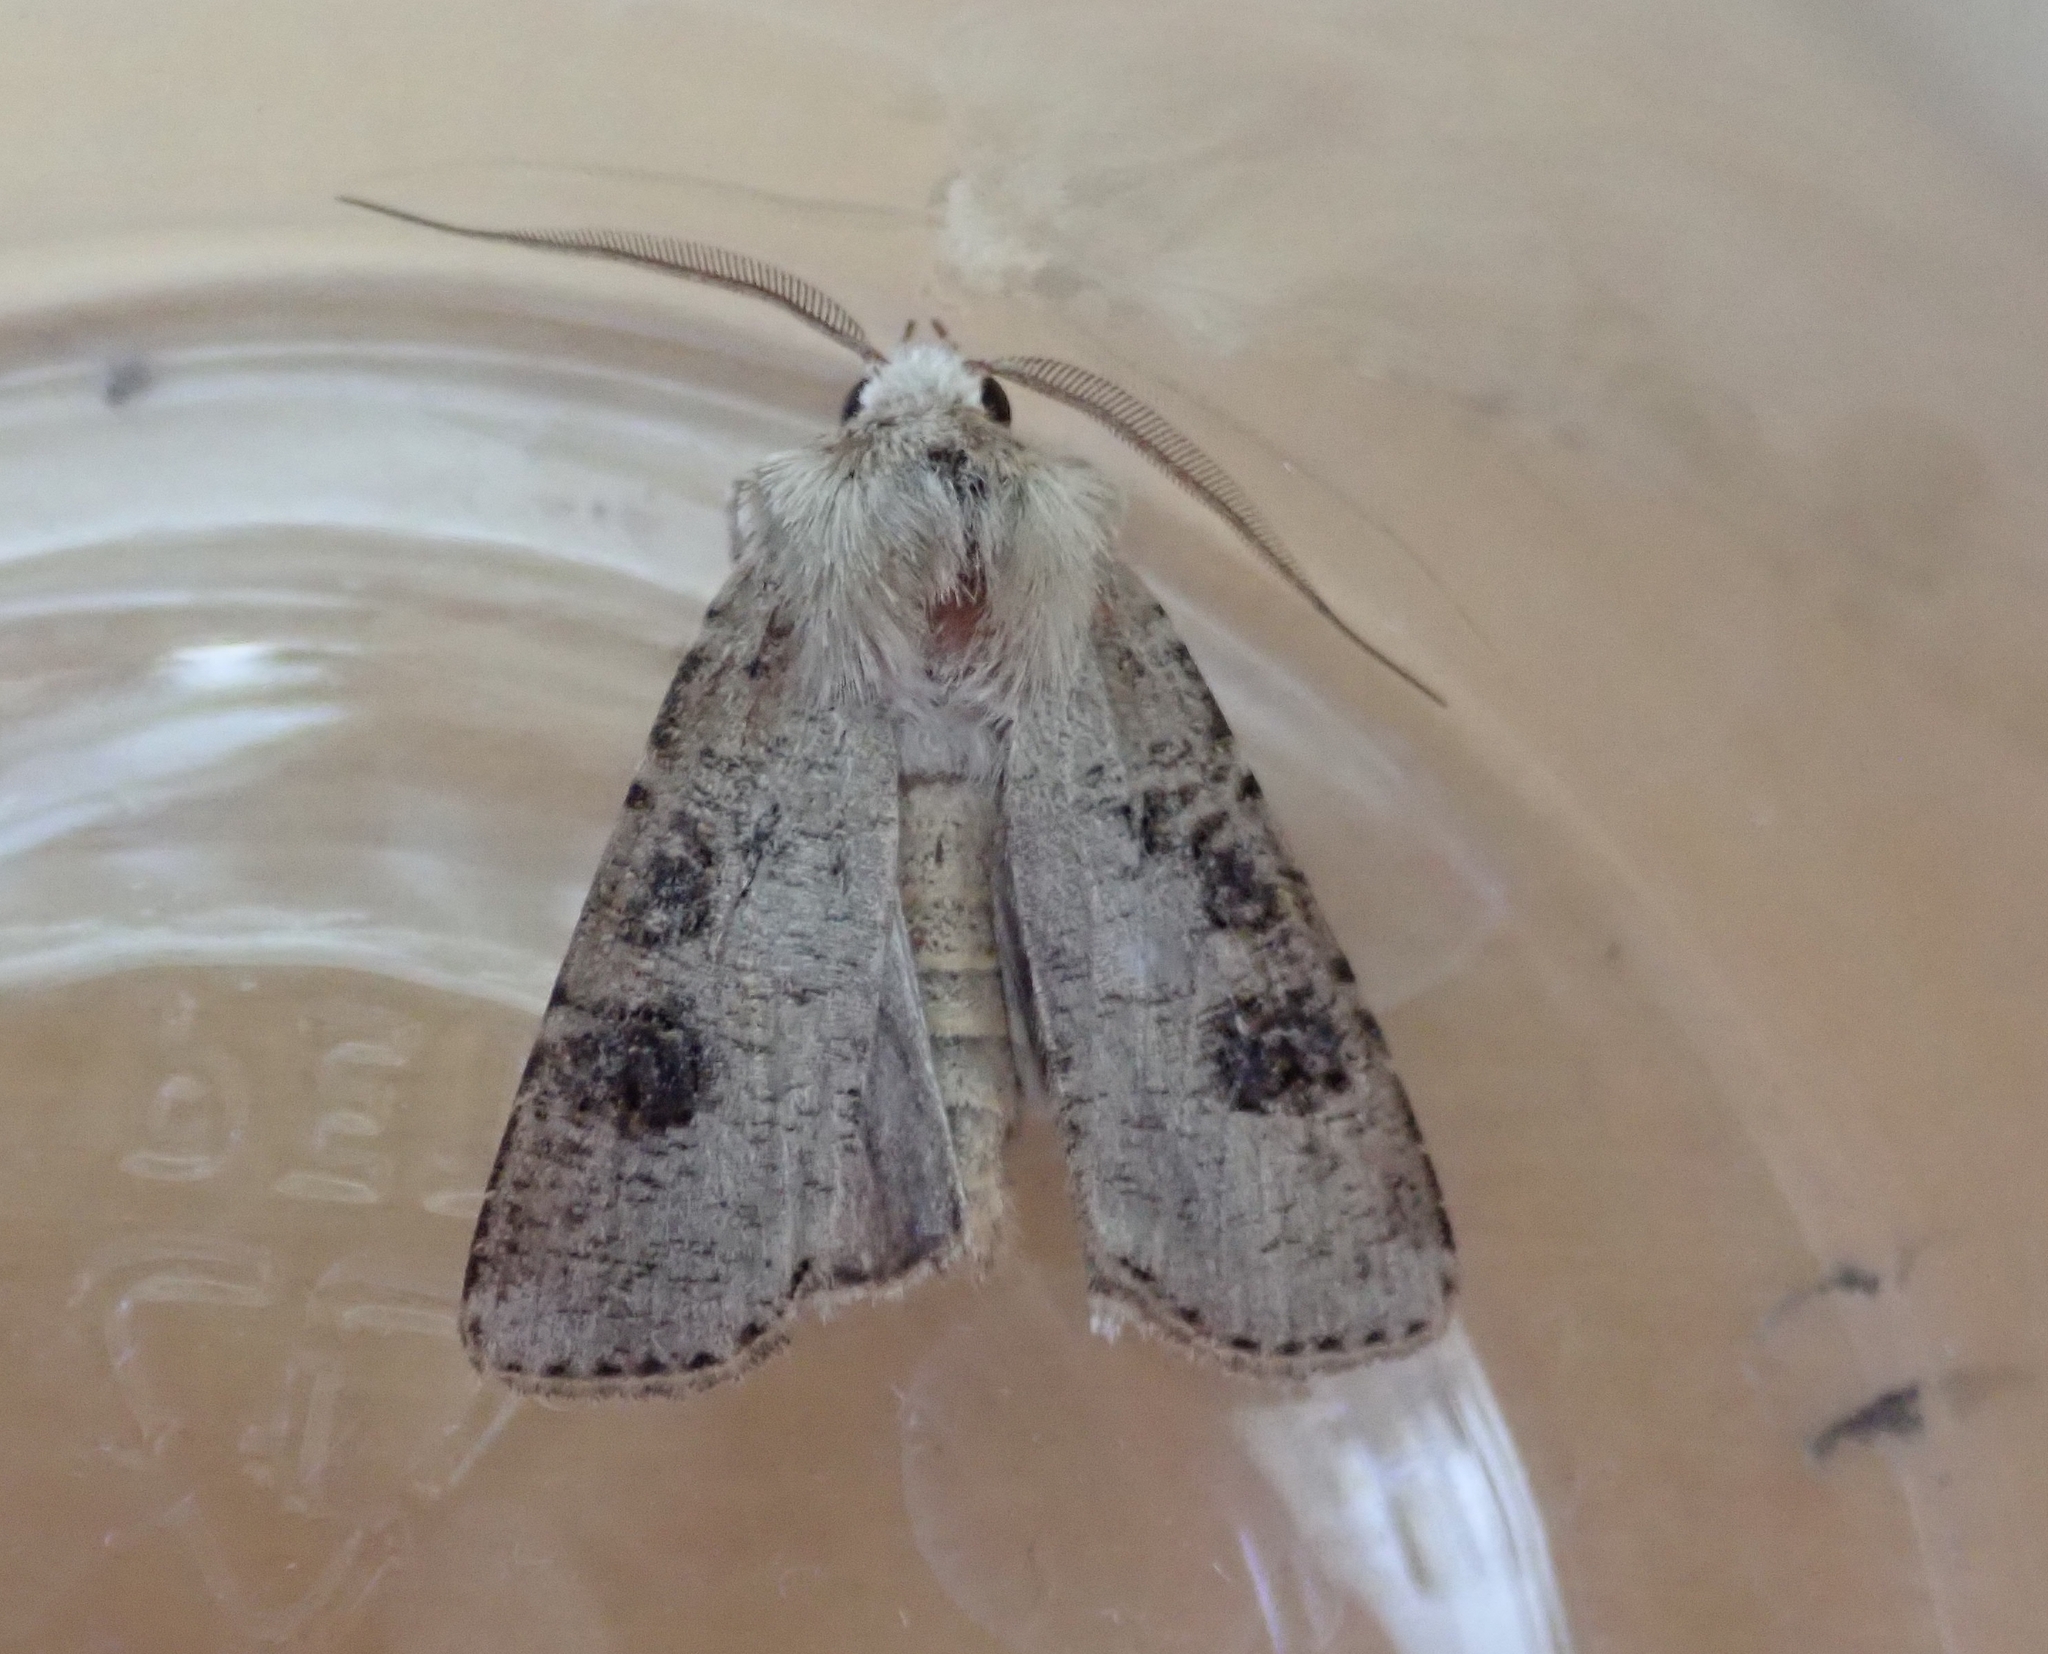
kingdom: Animalia
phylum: Arthropoda
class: Insecta
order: Lepidoptera
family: Noctuidae
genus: Agrotis
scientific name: Agrotis clavis
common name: Heart and club
